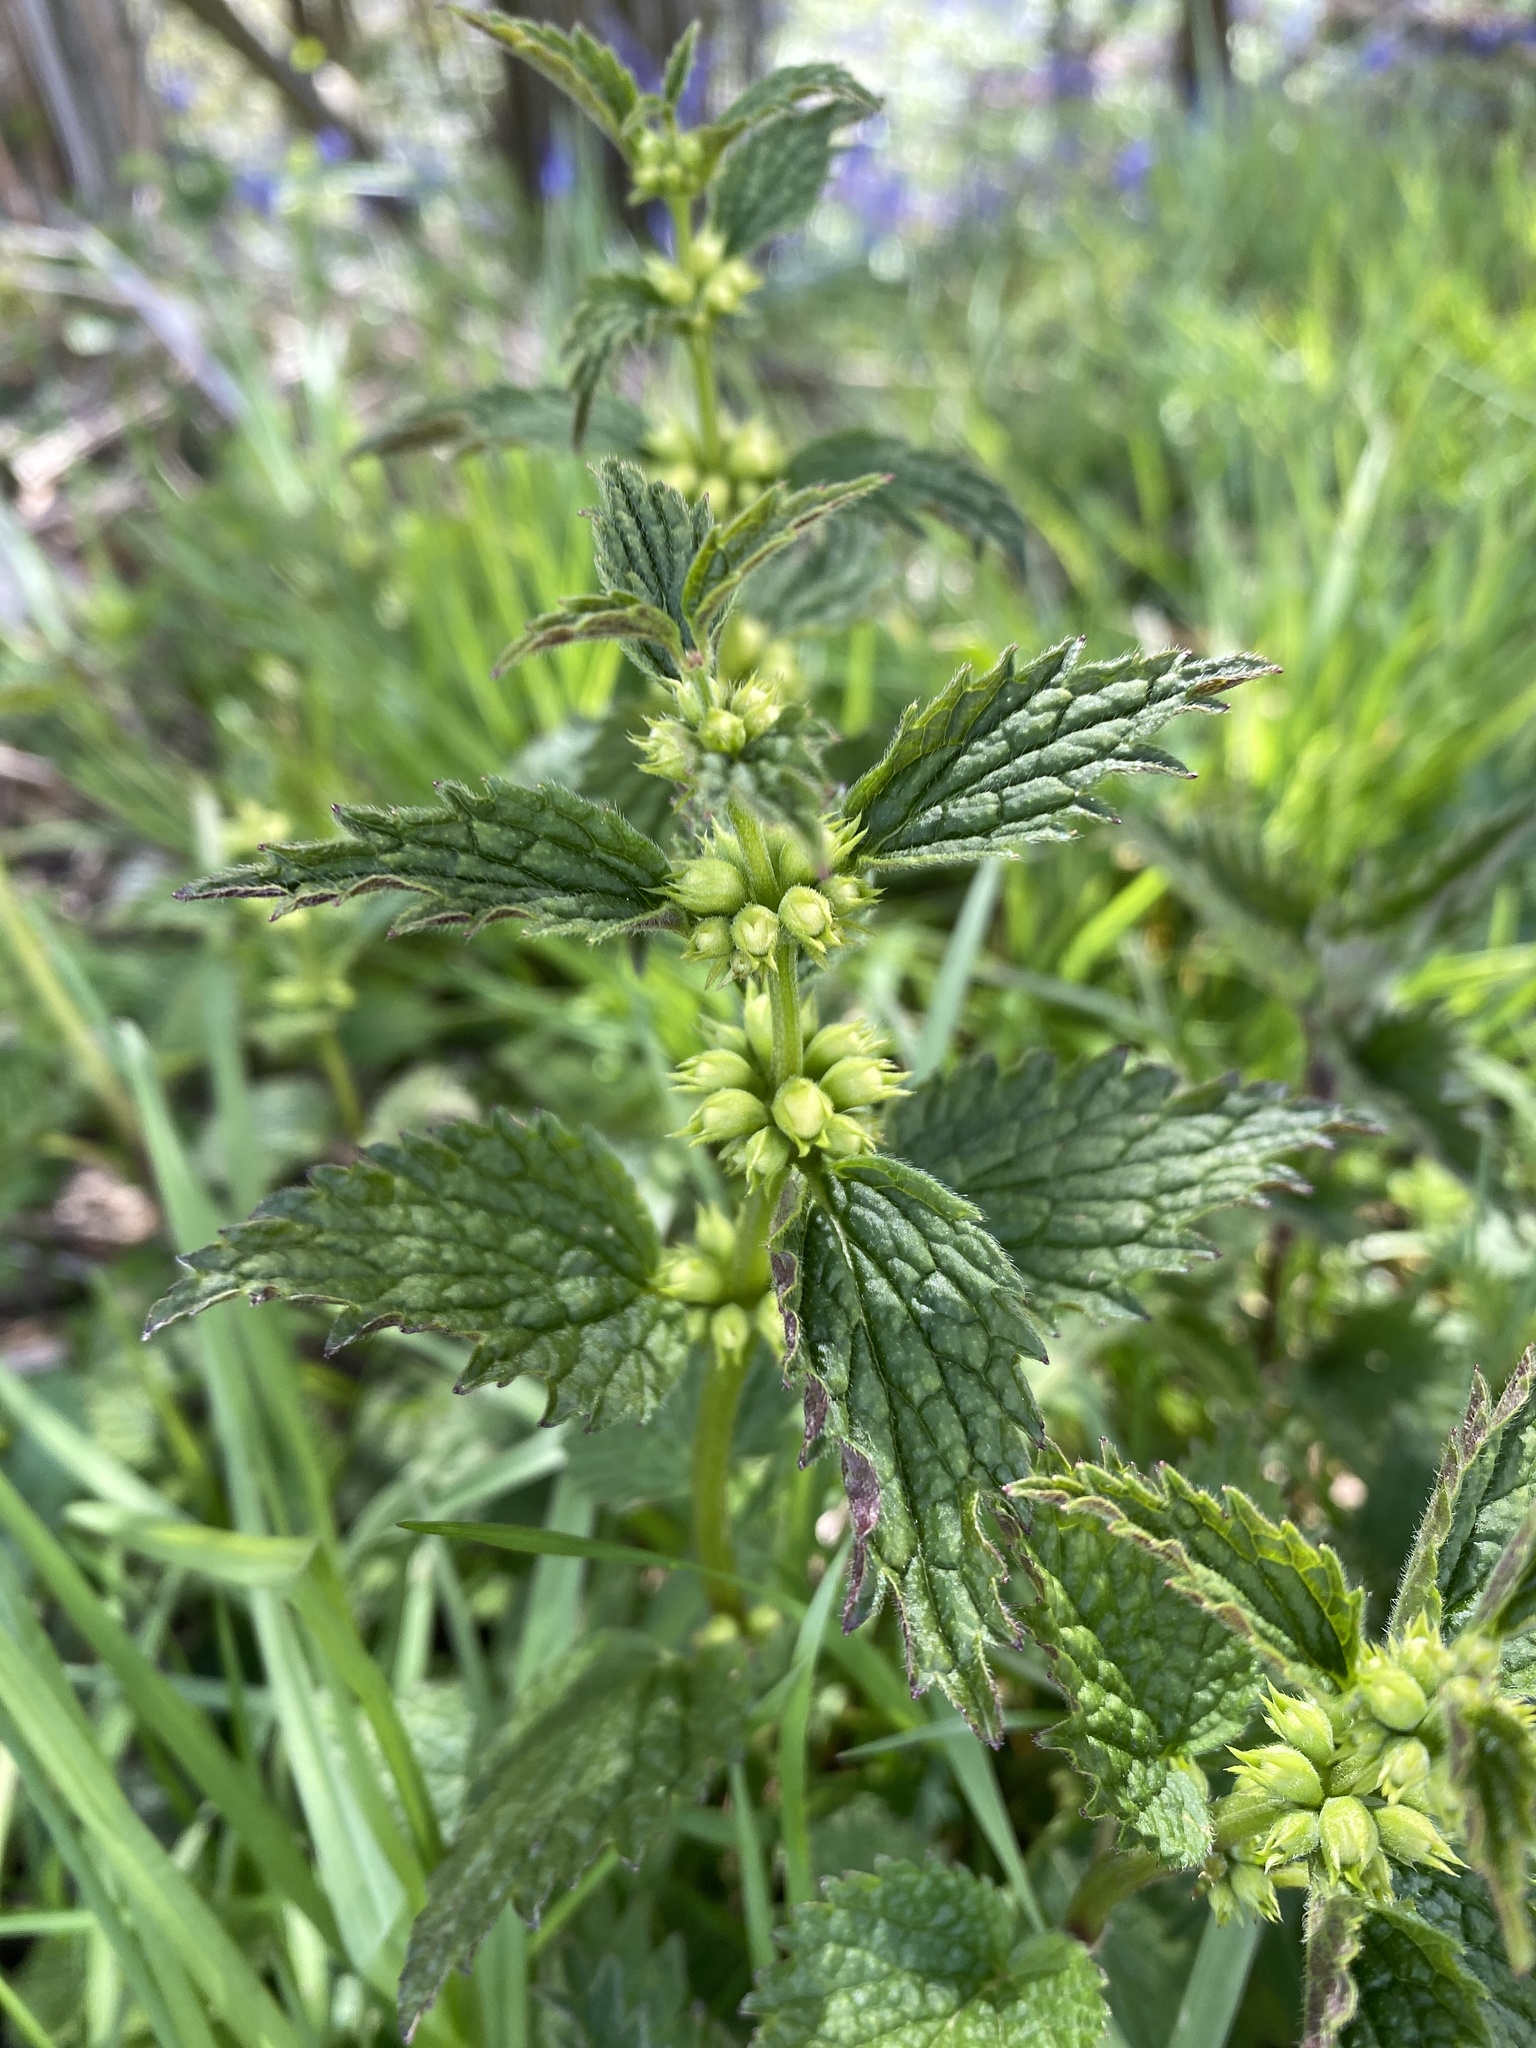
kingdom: Plantae
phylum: Tracheophyta
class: Magnoliopsida
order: Lamiales
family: Lamiaceae
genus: Lamium
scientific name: Lamium galeobdolon
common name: Yellow archangel
